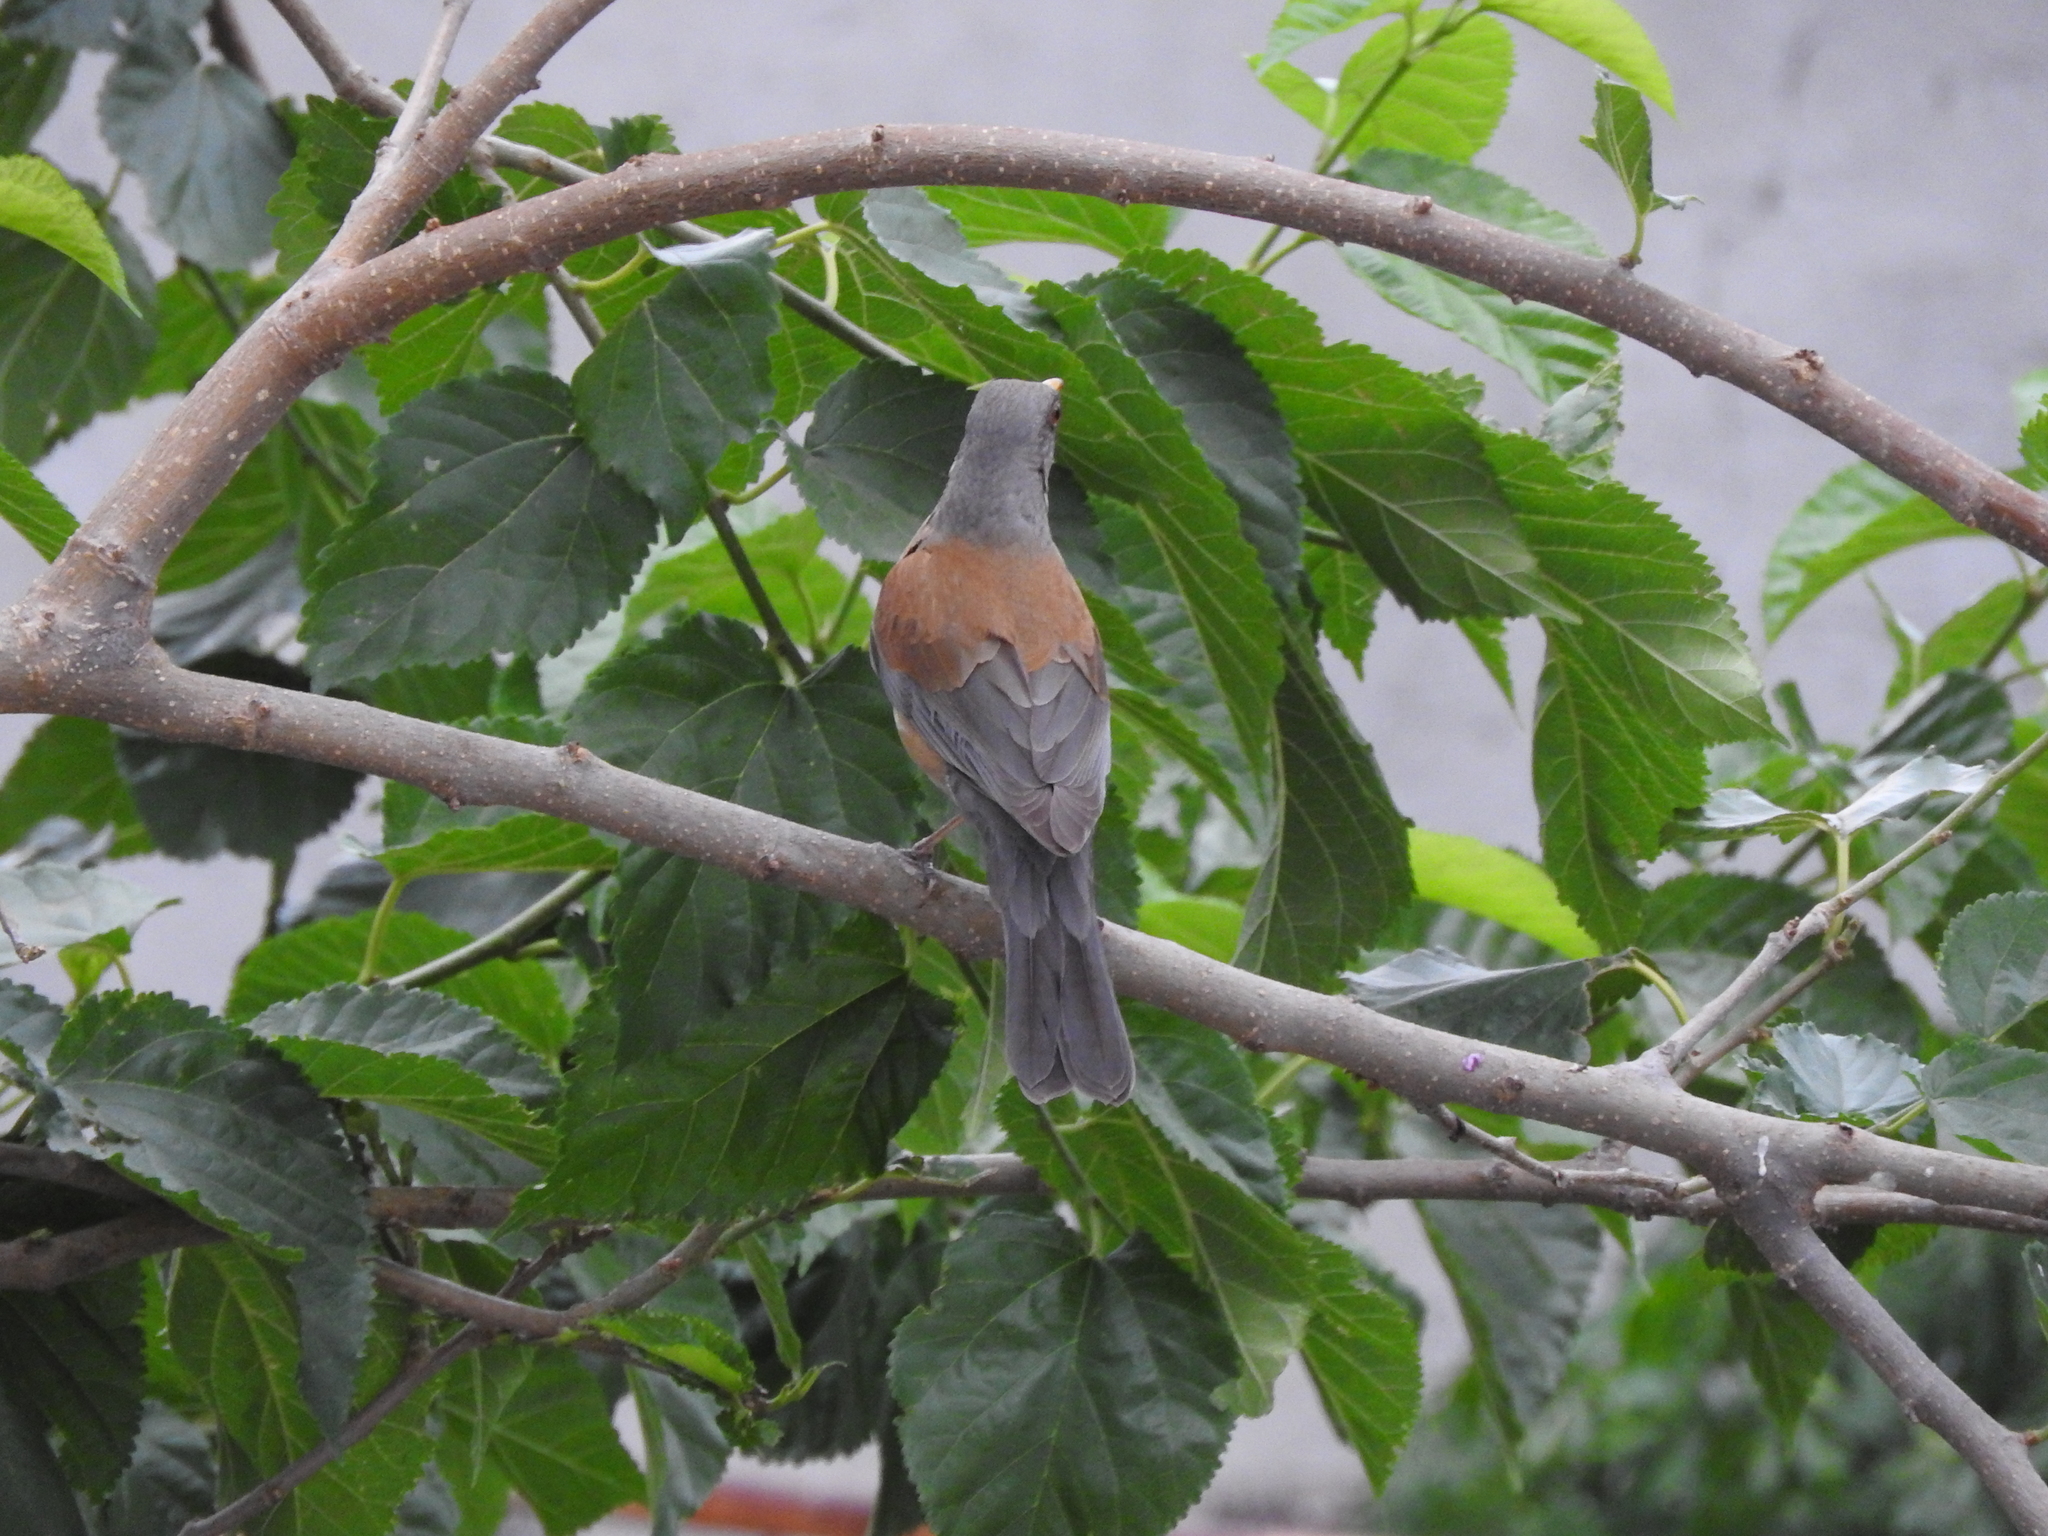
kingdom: Animalia
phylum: Chordata
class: Aves
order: Passeriformes
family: Turdidae
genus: Turdus
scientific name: Turdus rufopalliatus
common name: Rufous-backed robin
